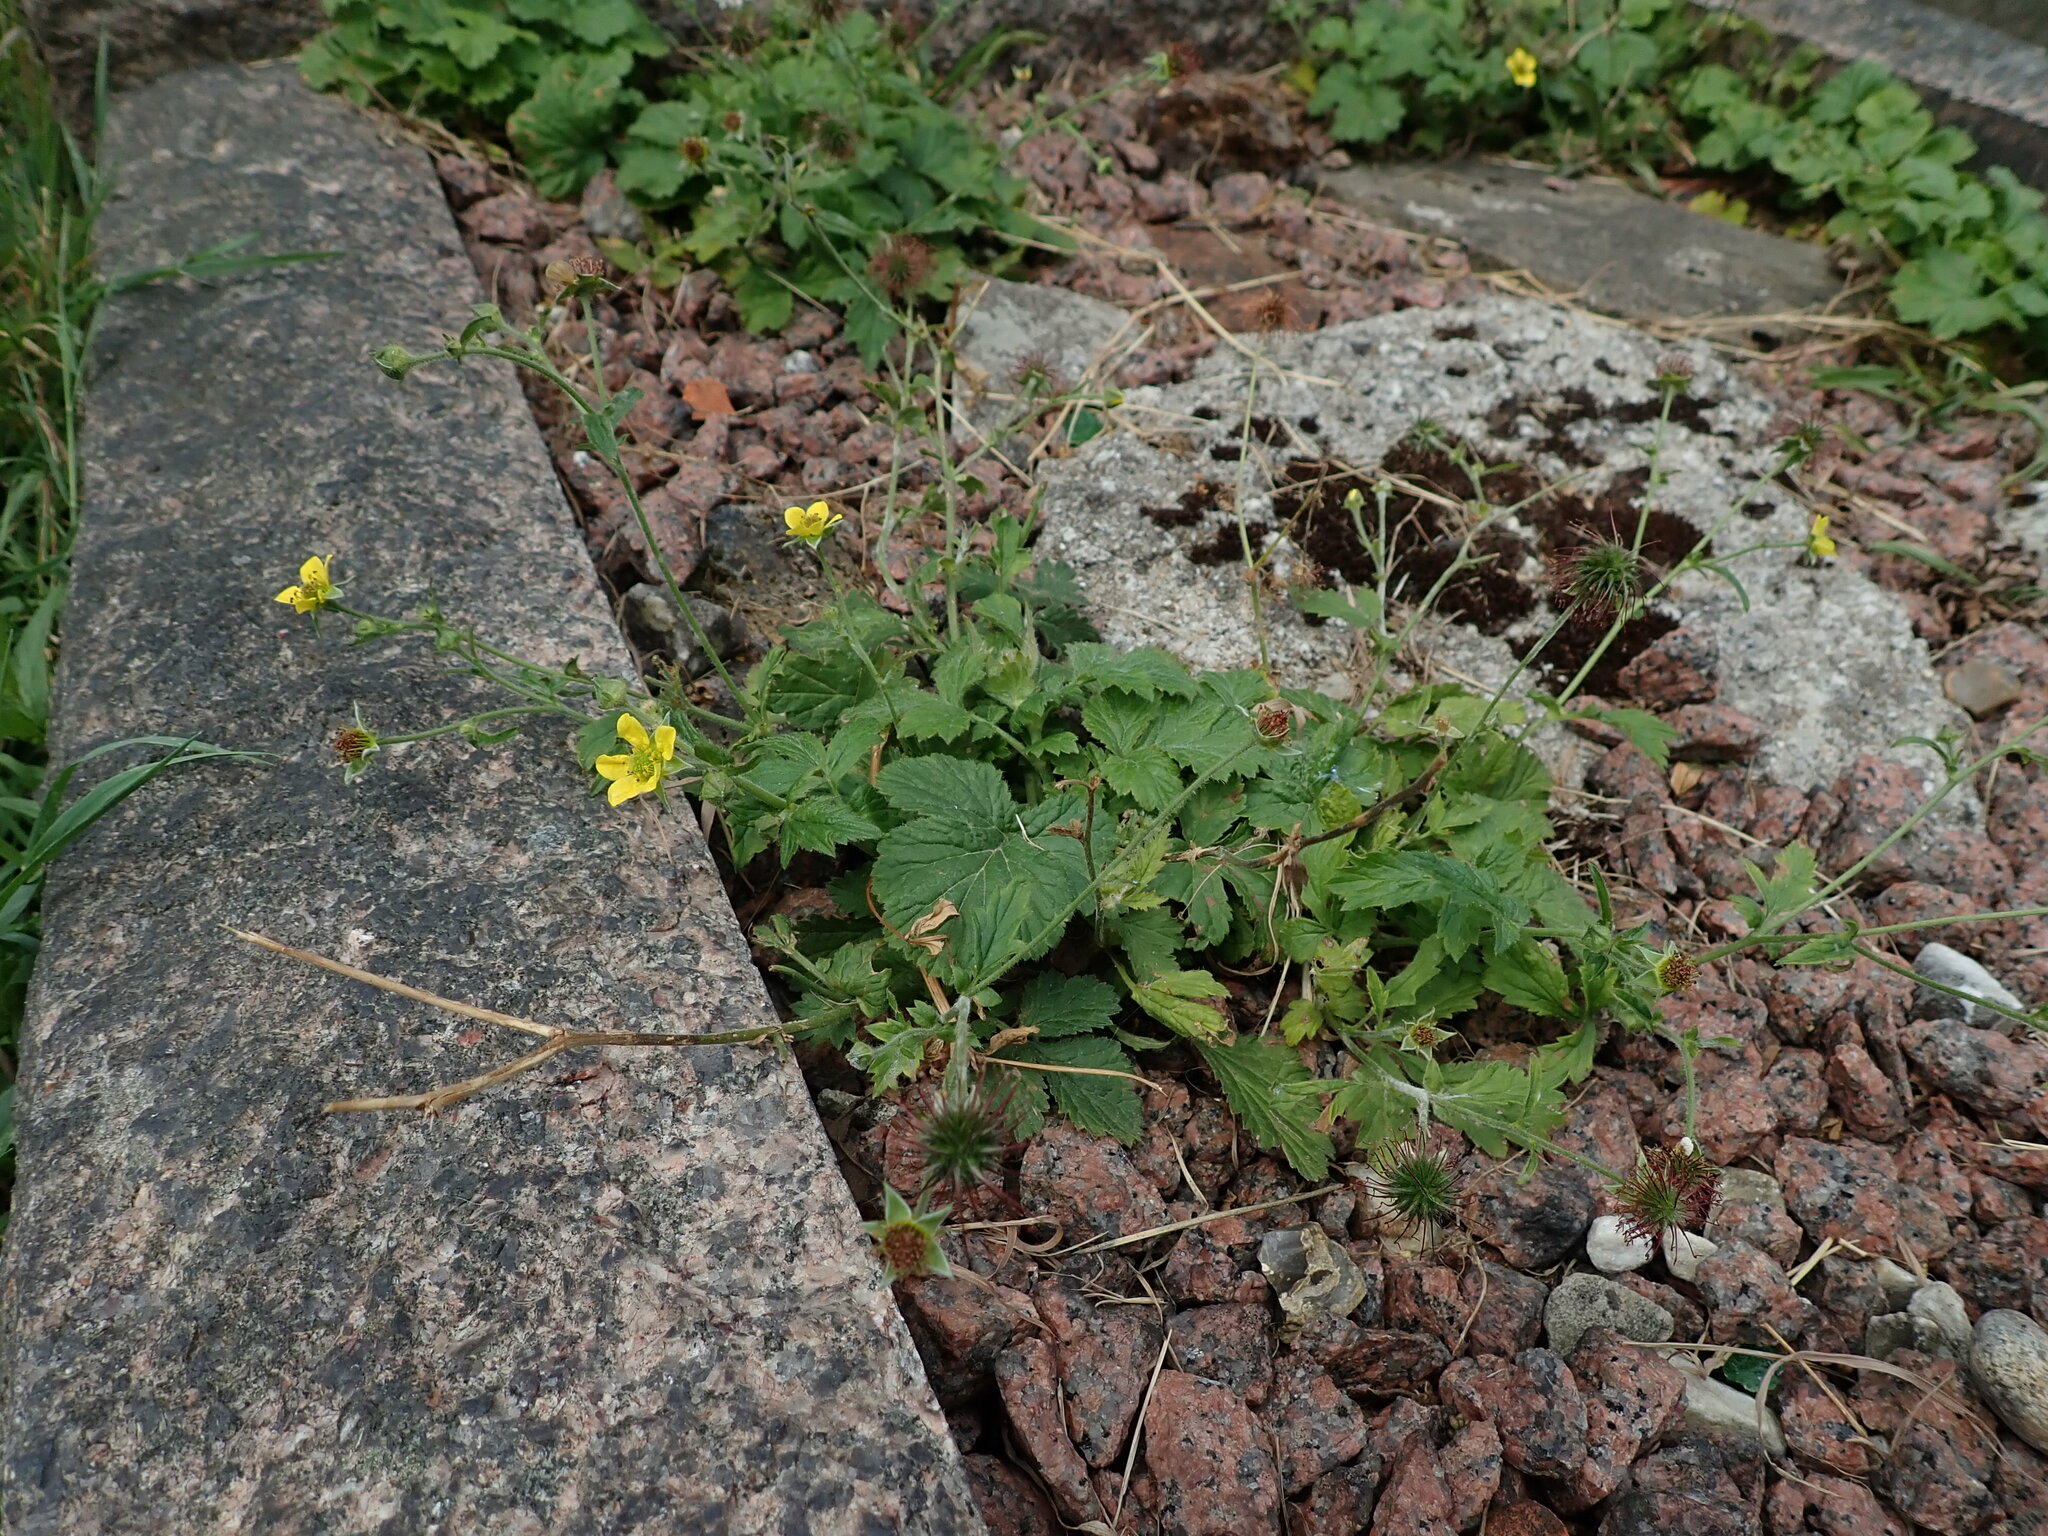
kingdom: Plantae
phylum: Tracheophyta
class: Magnoliopsida
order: Rosales
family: Rosaceae
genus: Geum
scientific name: Geum urbanum
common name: Wood avens
